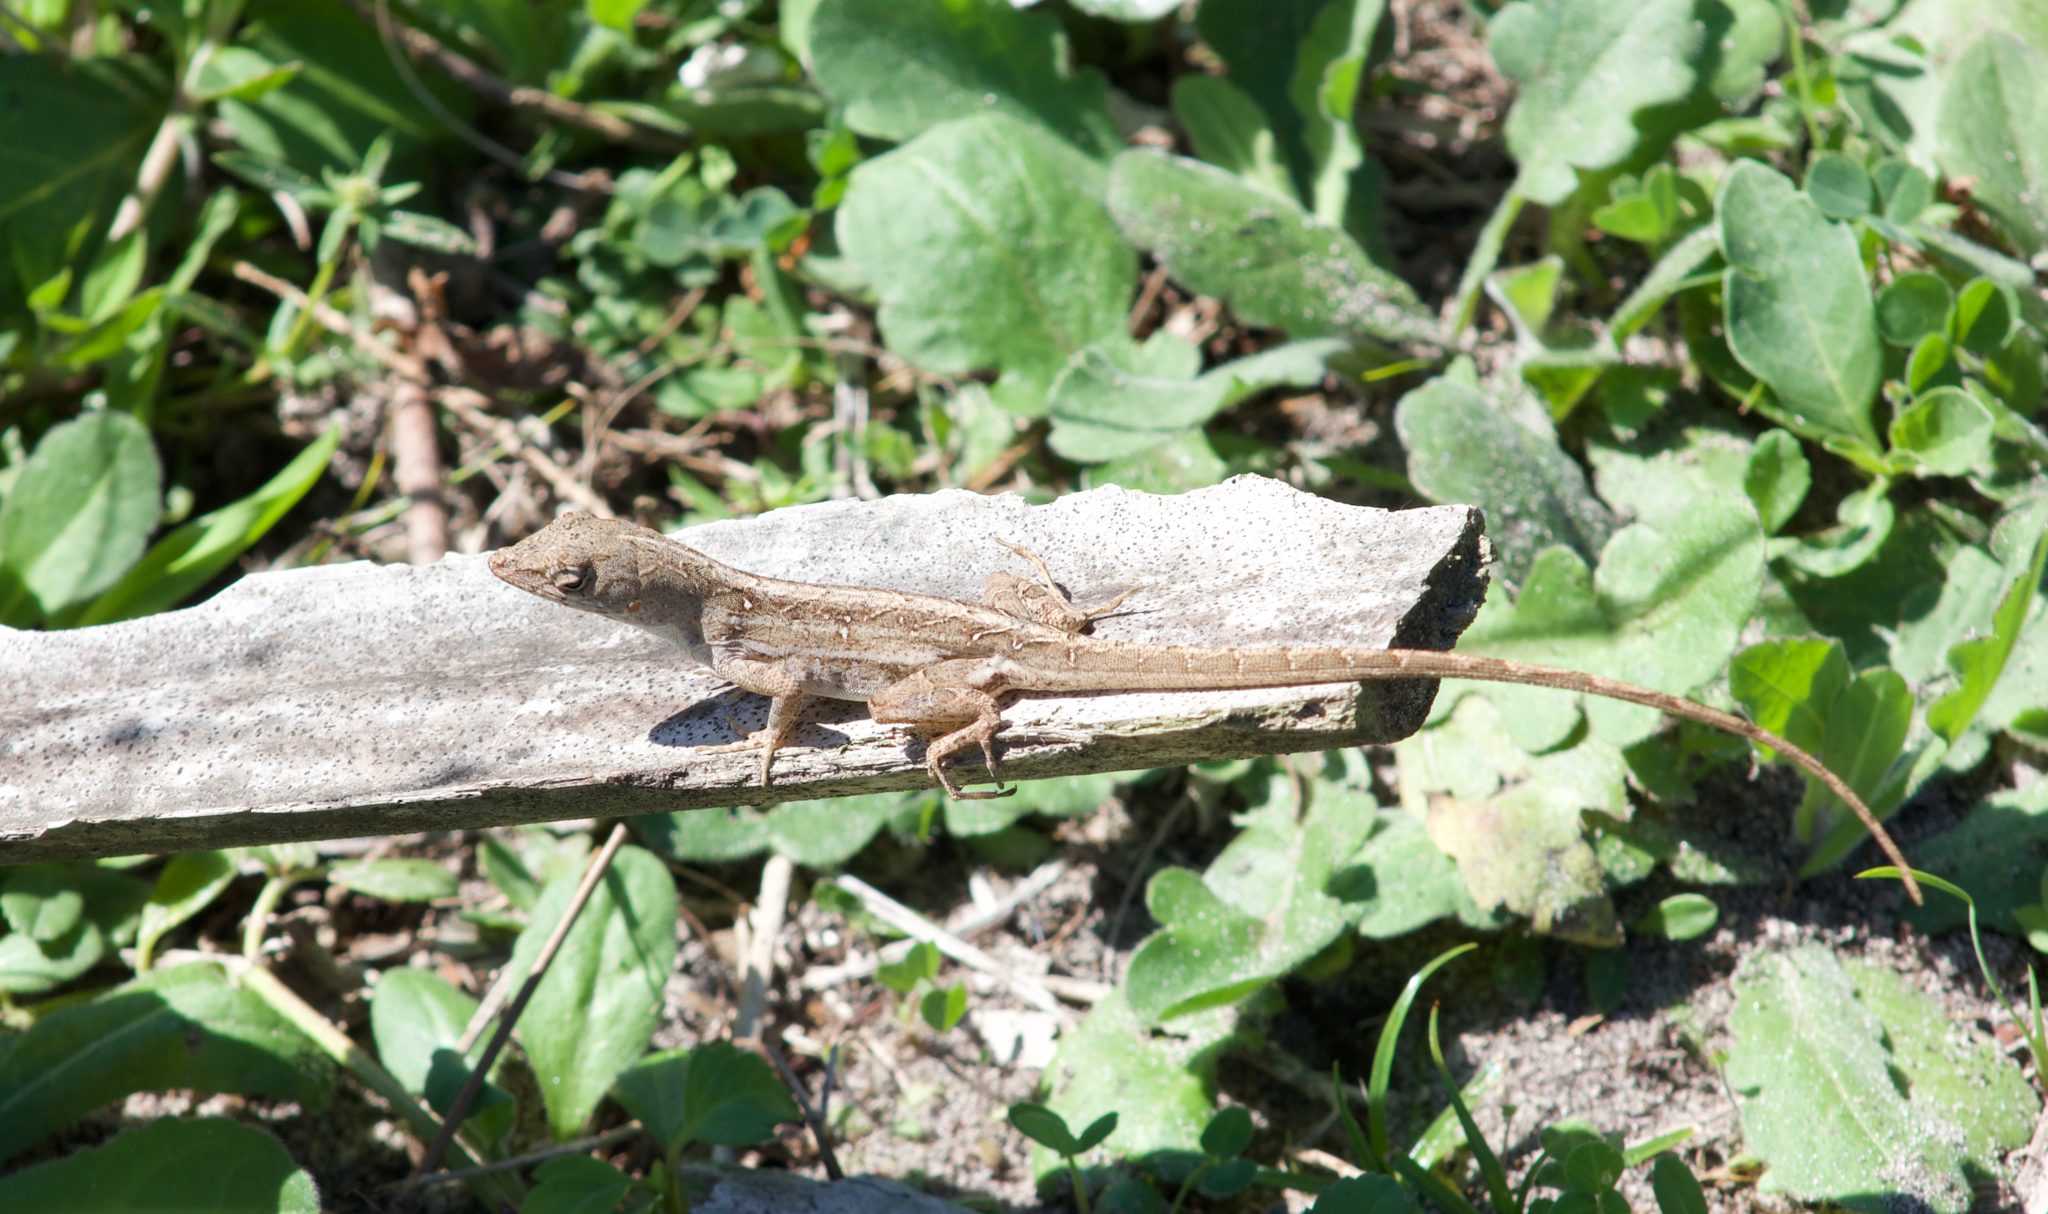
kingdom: Animalia
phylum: Chordata
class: Squamata
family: Dactyloidae
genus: Anolis
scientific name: Anolis sagrei
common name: Brown anole
